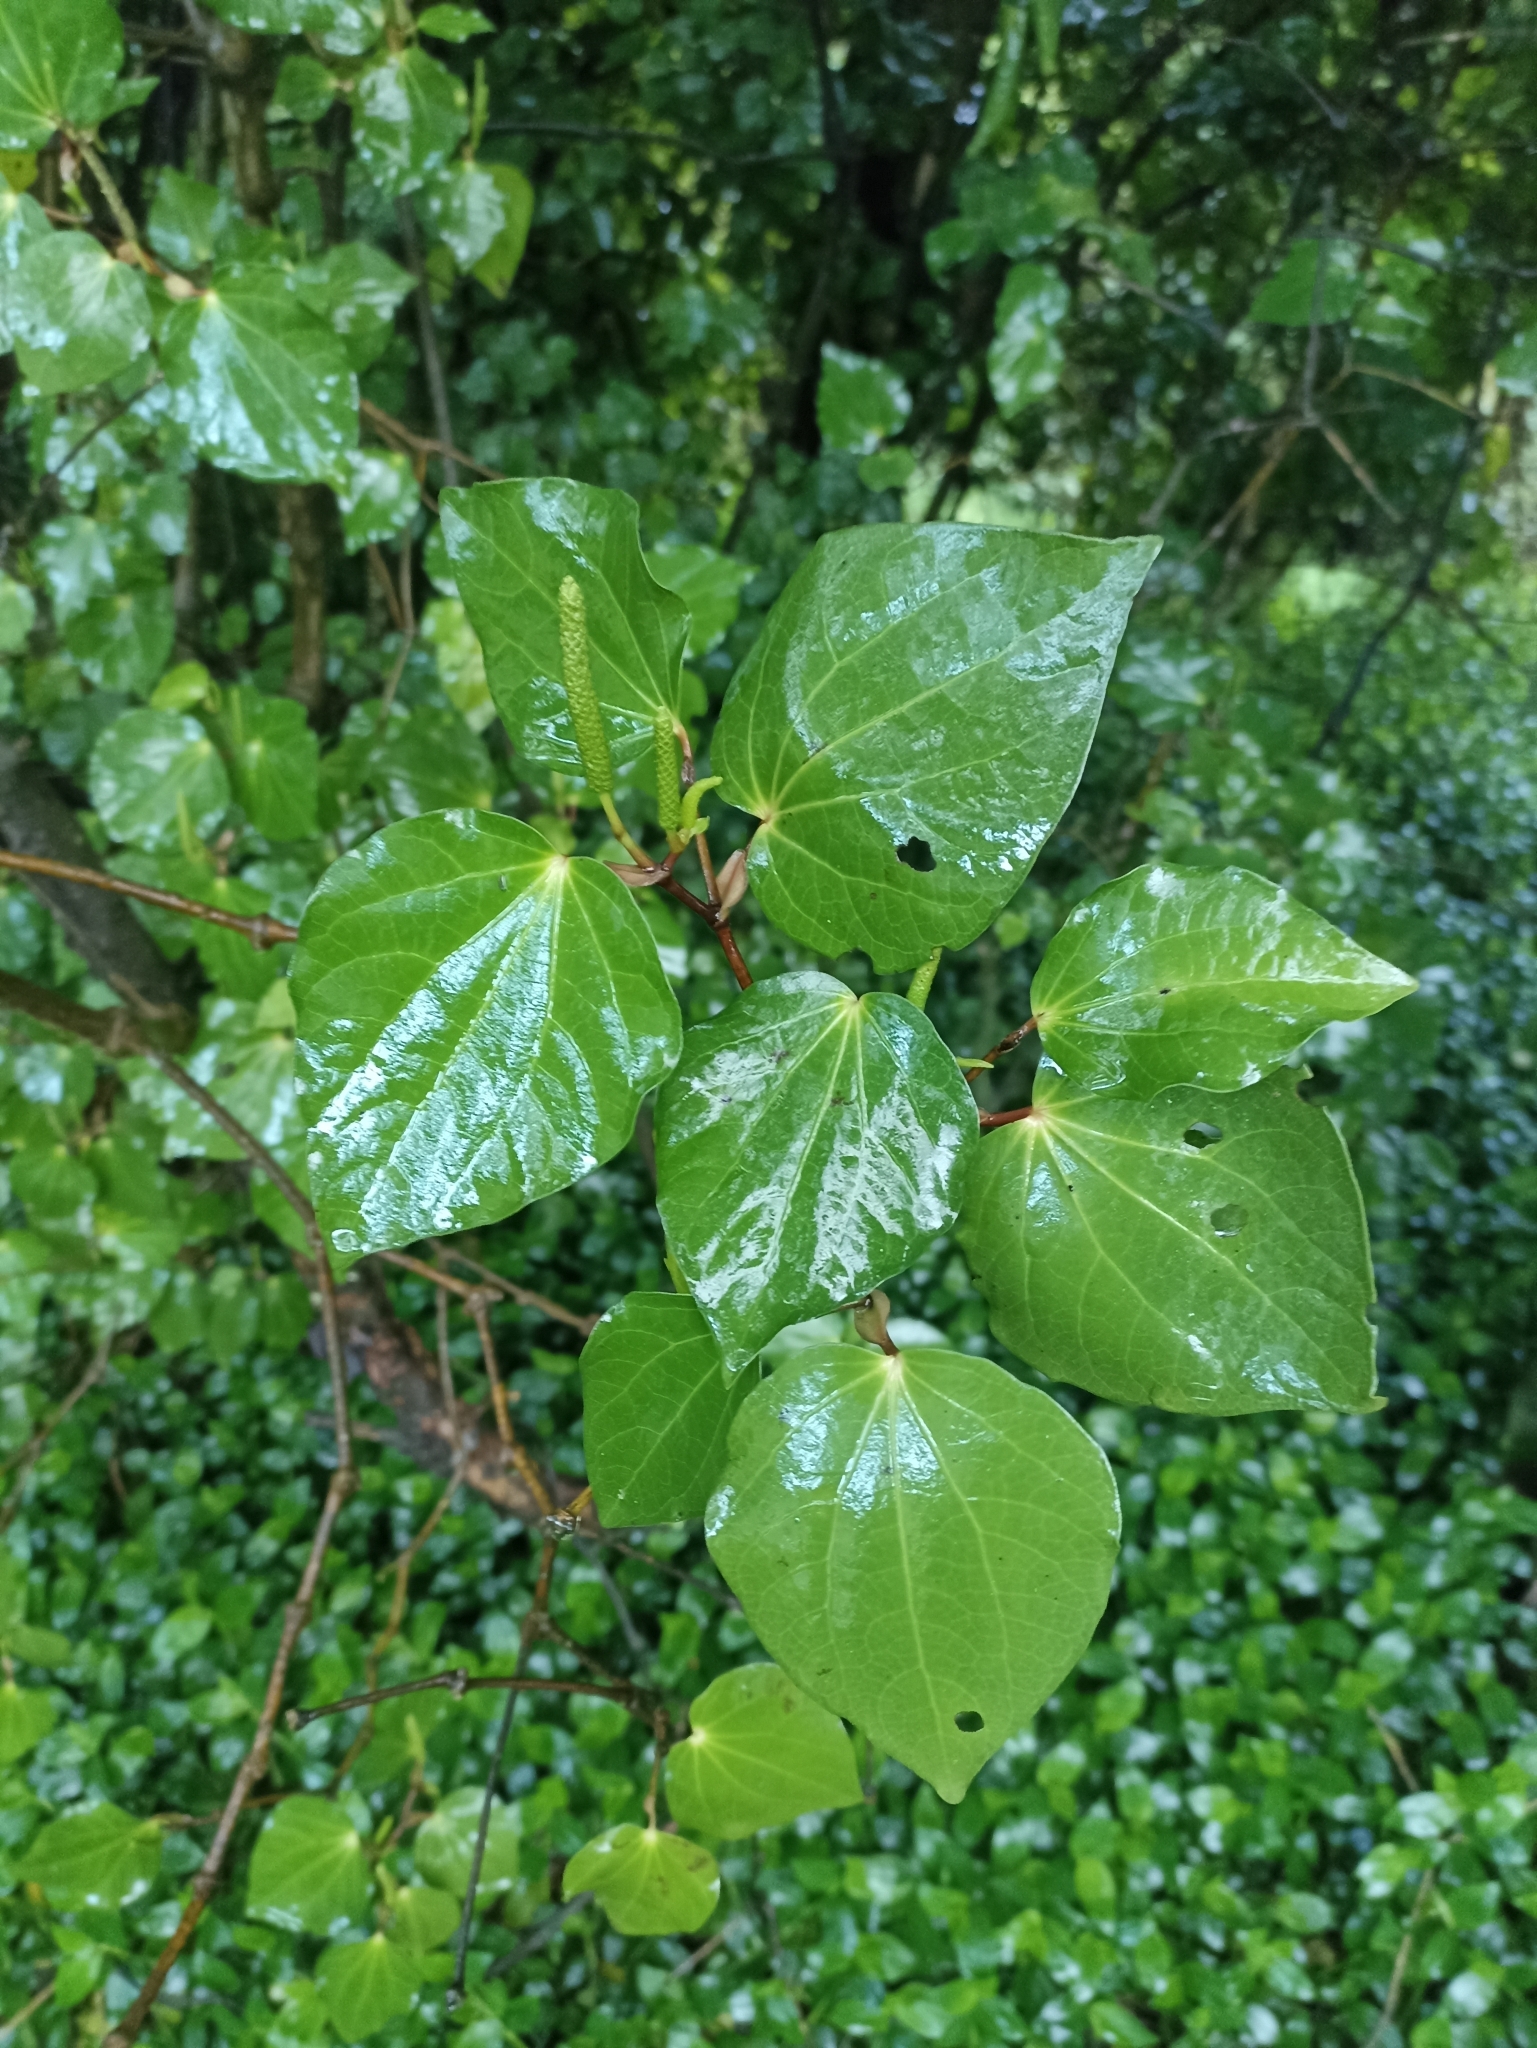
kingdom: Plantae
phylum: Tracheophyta
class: Magnoliopsida
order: Piperales
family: Piperaceae
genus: Macropiper
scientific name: Macropiper excelsum
